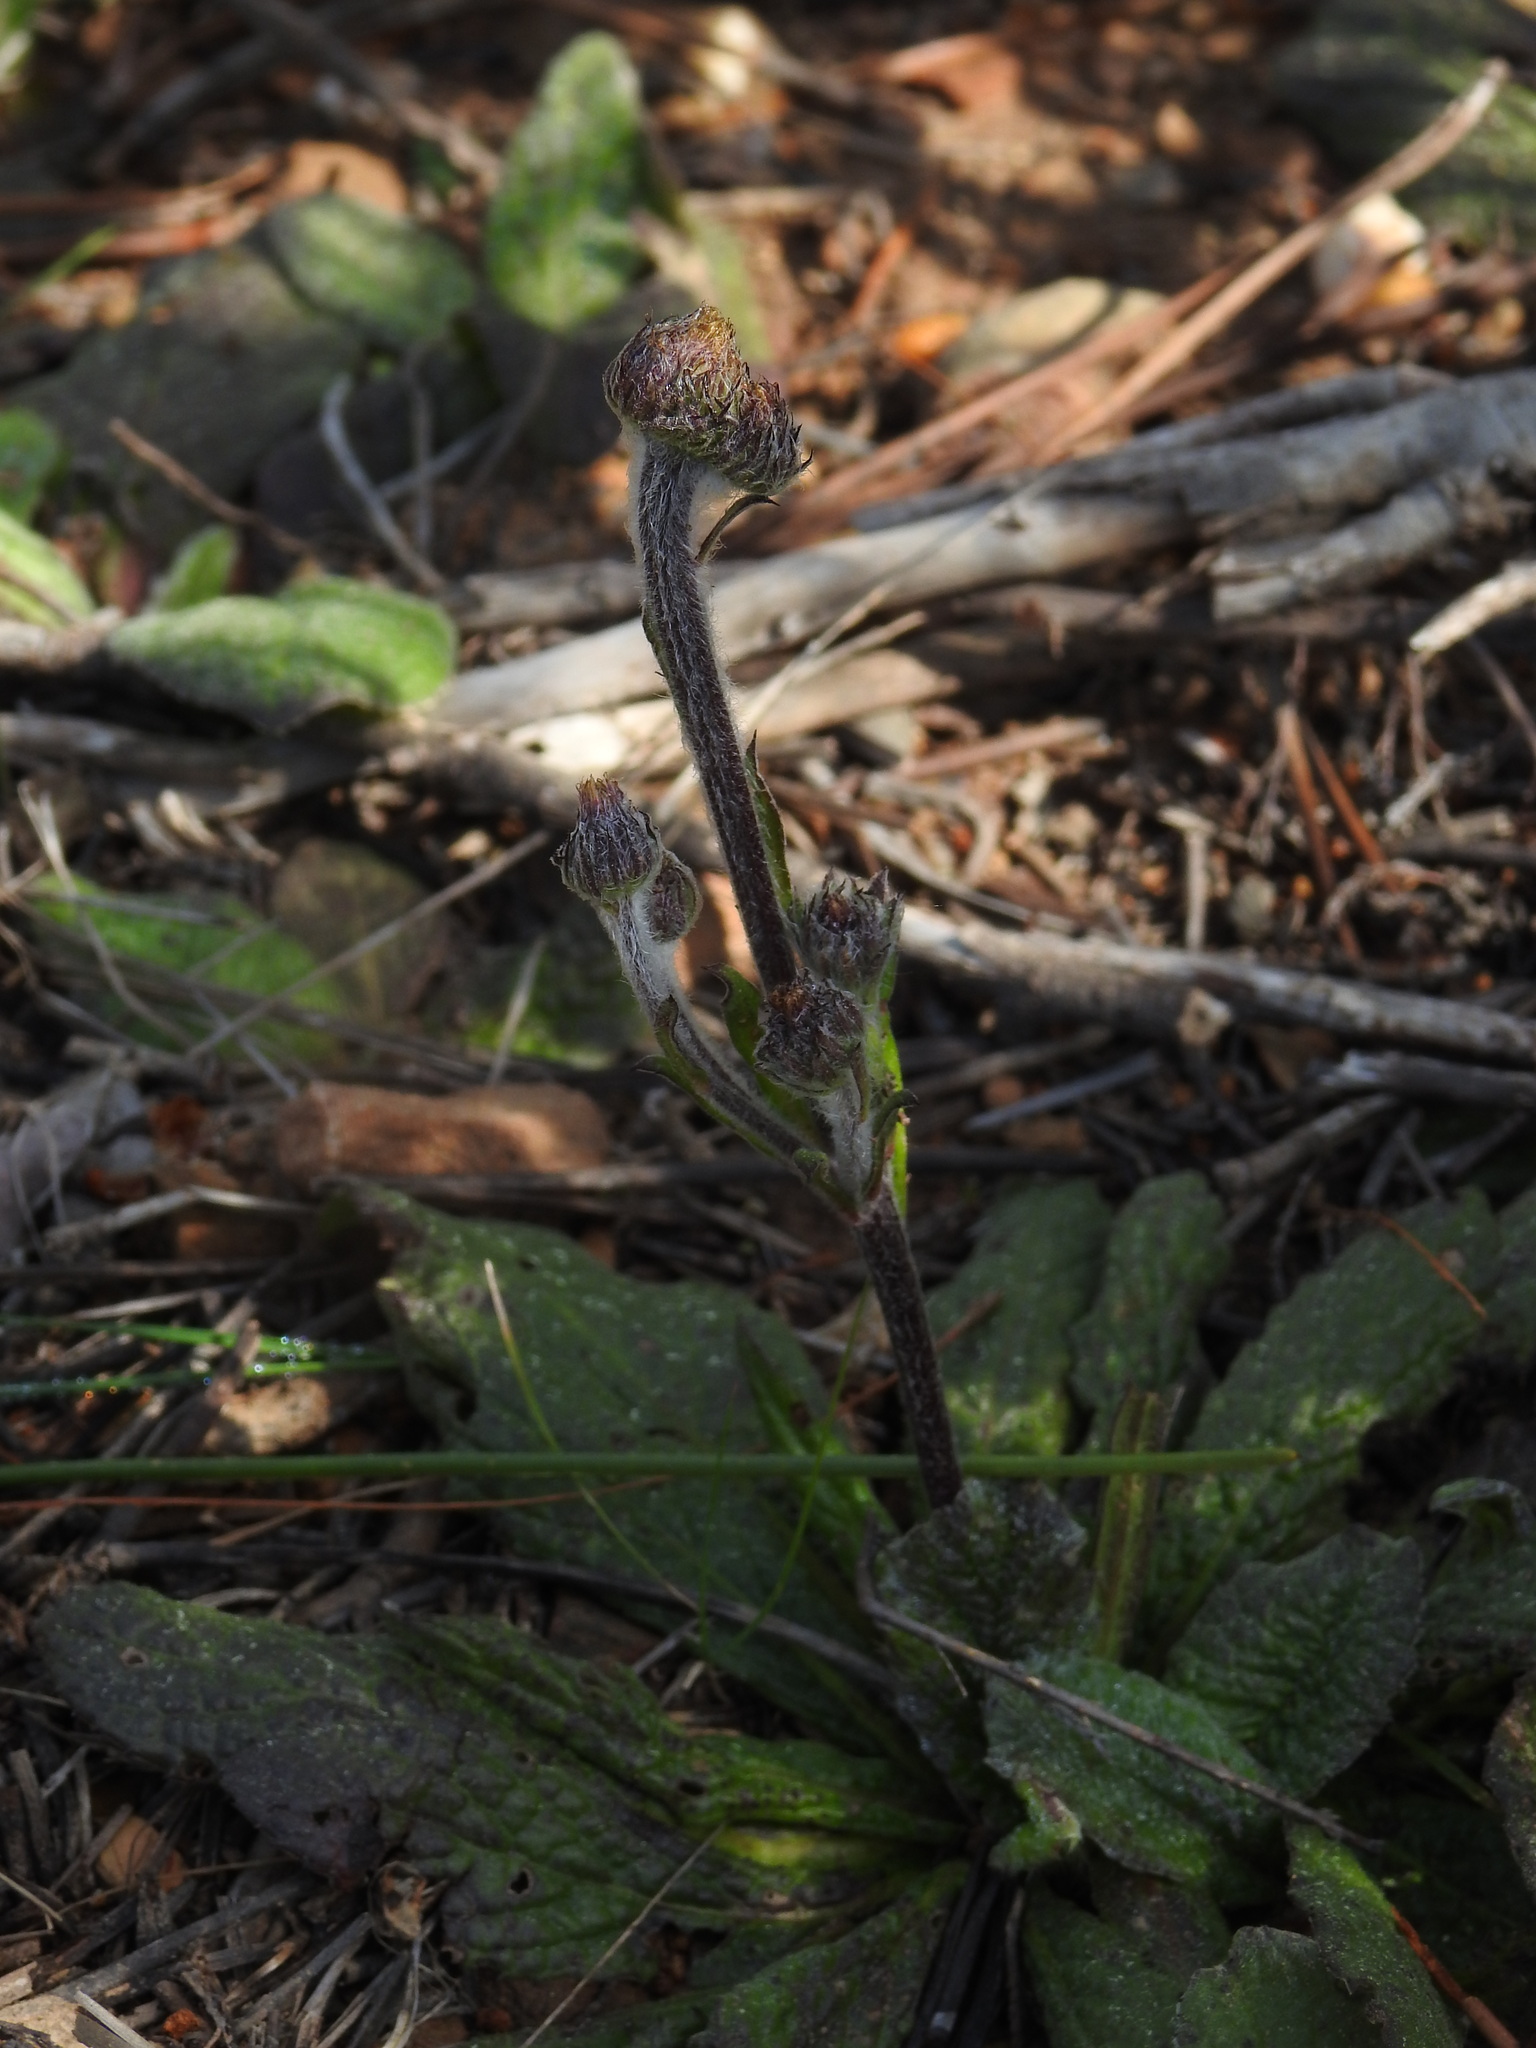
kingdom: Plantae
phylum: Tracheophyta
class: Magnoliopsida
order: Asterales
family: Asteraceae
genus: Pulicaria
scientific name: Pulicaria odora
